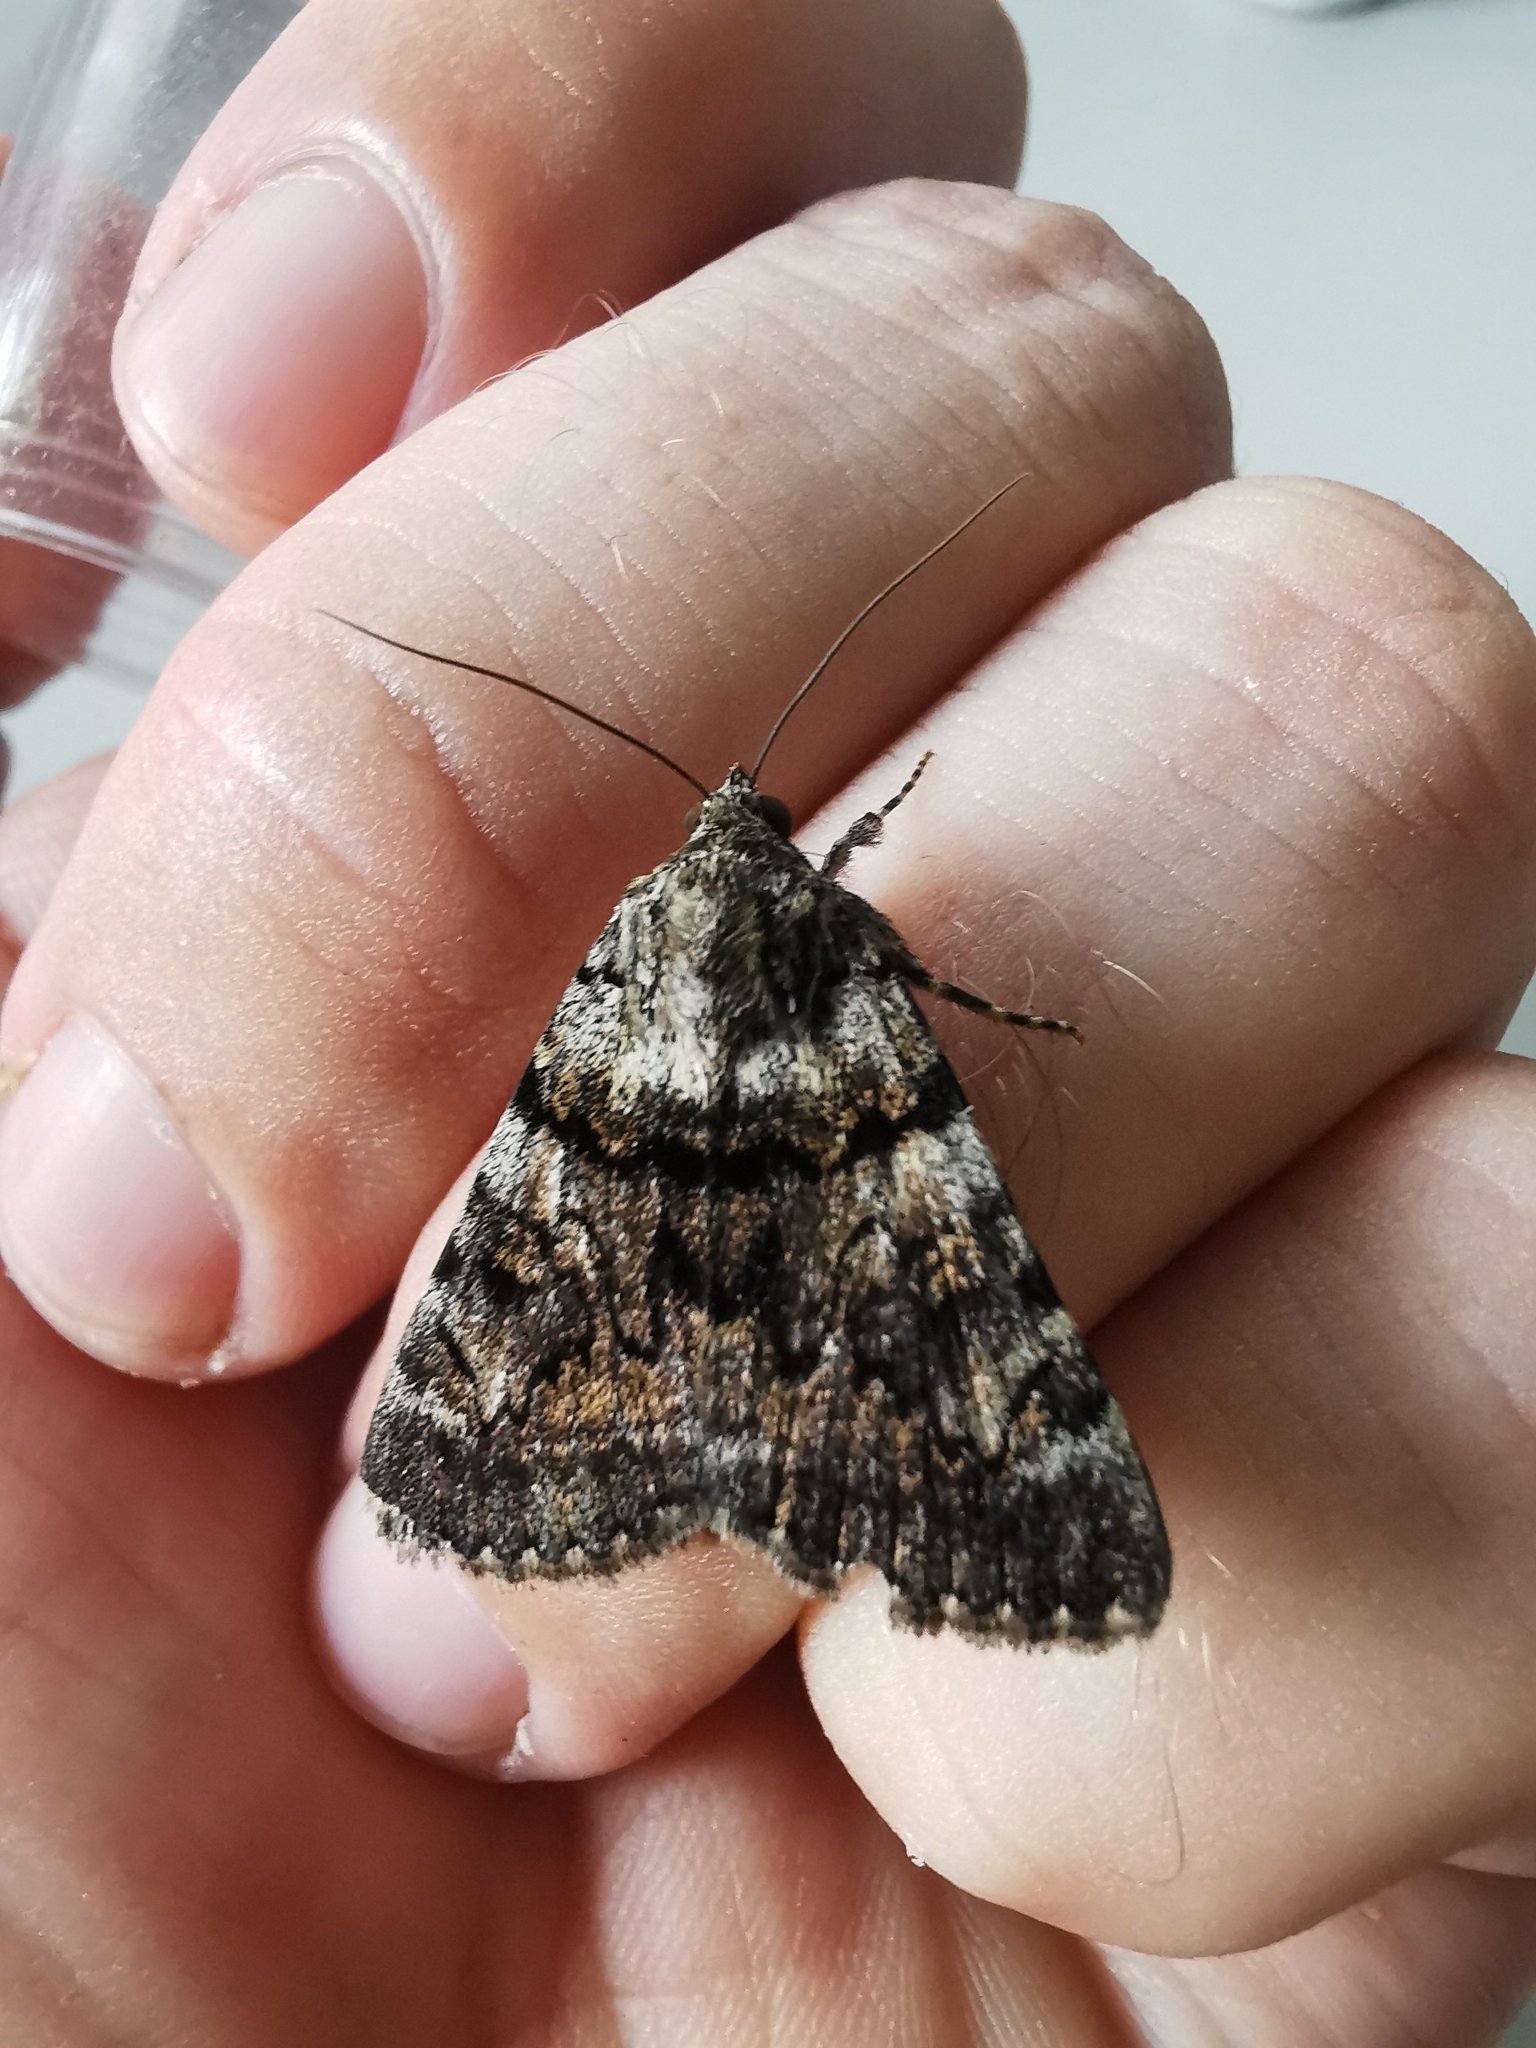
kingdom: Animalia
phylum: Arthropoda
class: Insecta
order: Lepidoptera
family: Erebidae
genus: Catocala
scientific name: Catocala nymphagoga
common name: Oak yellow underwing
